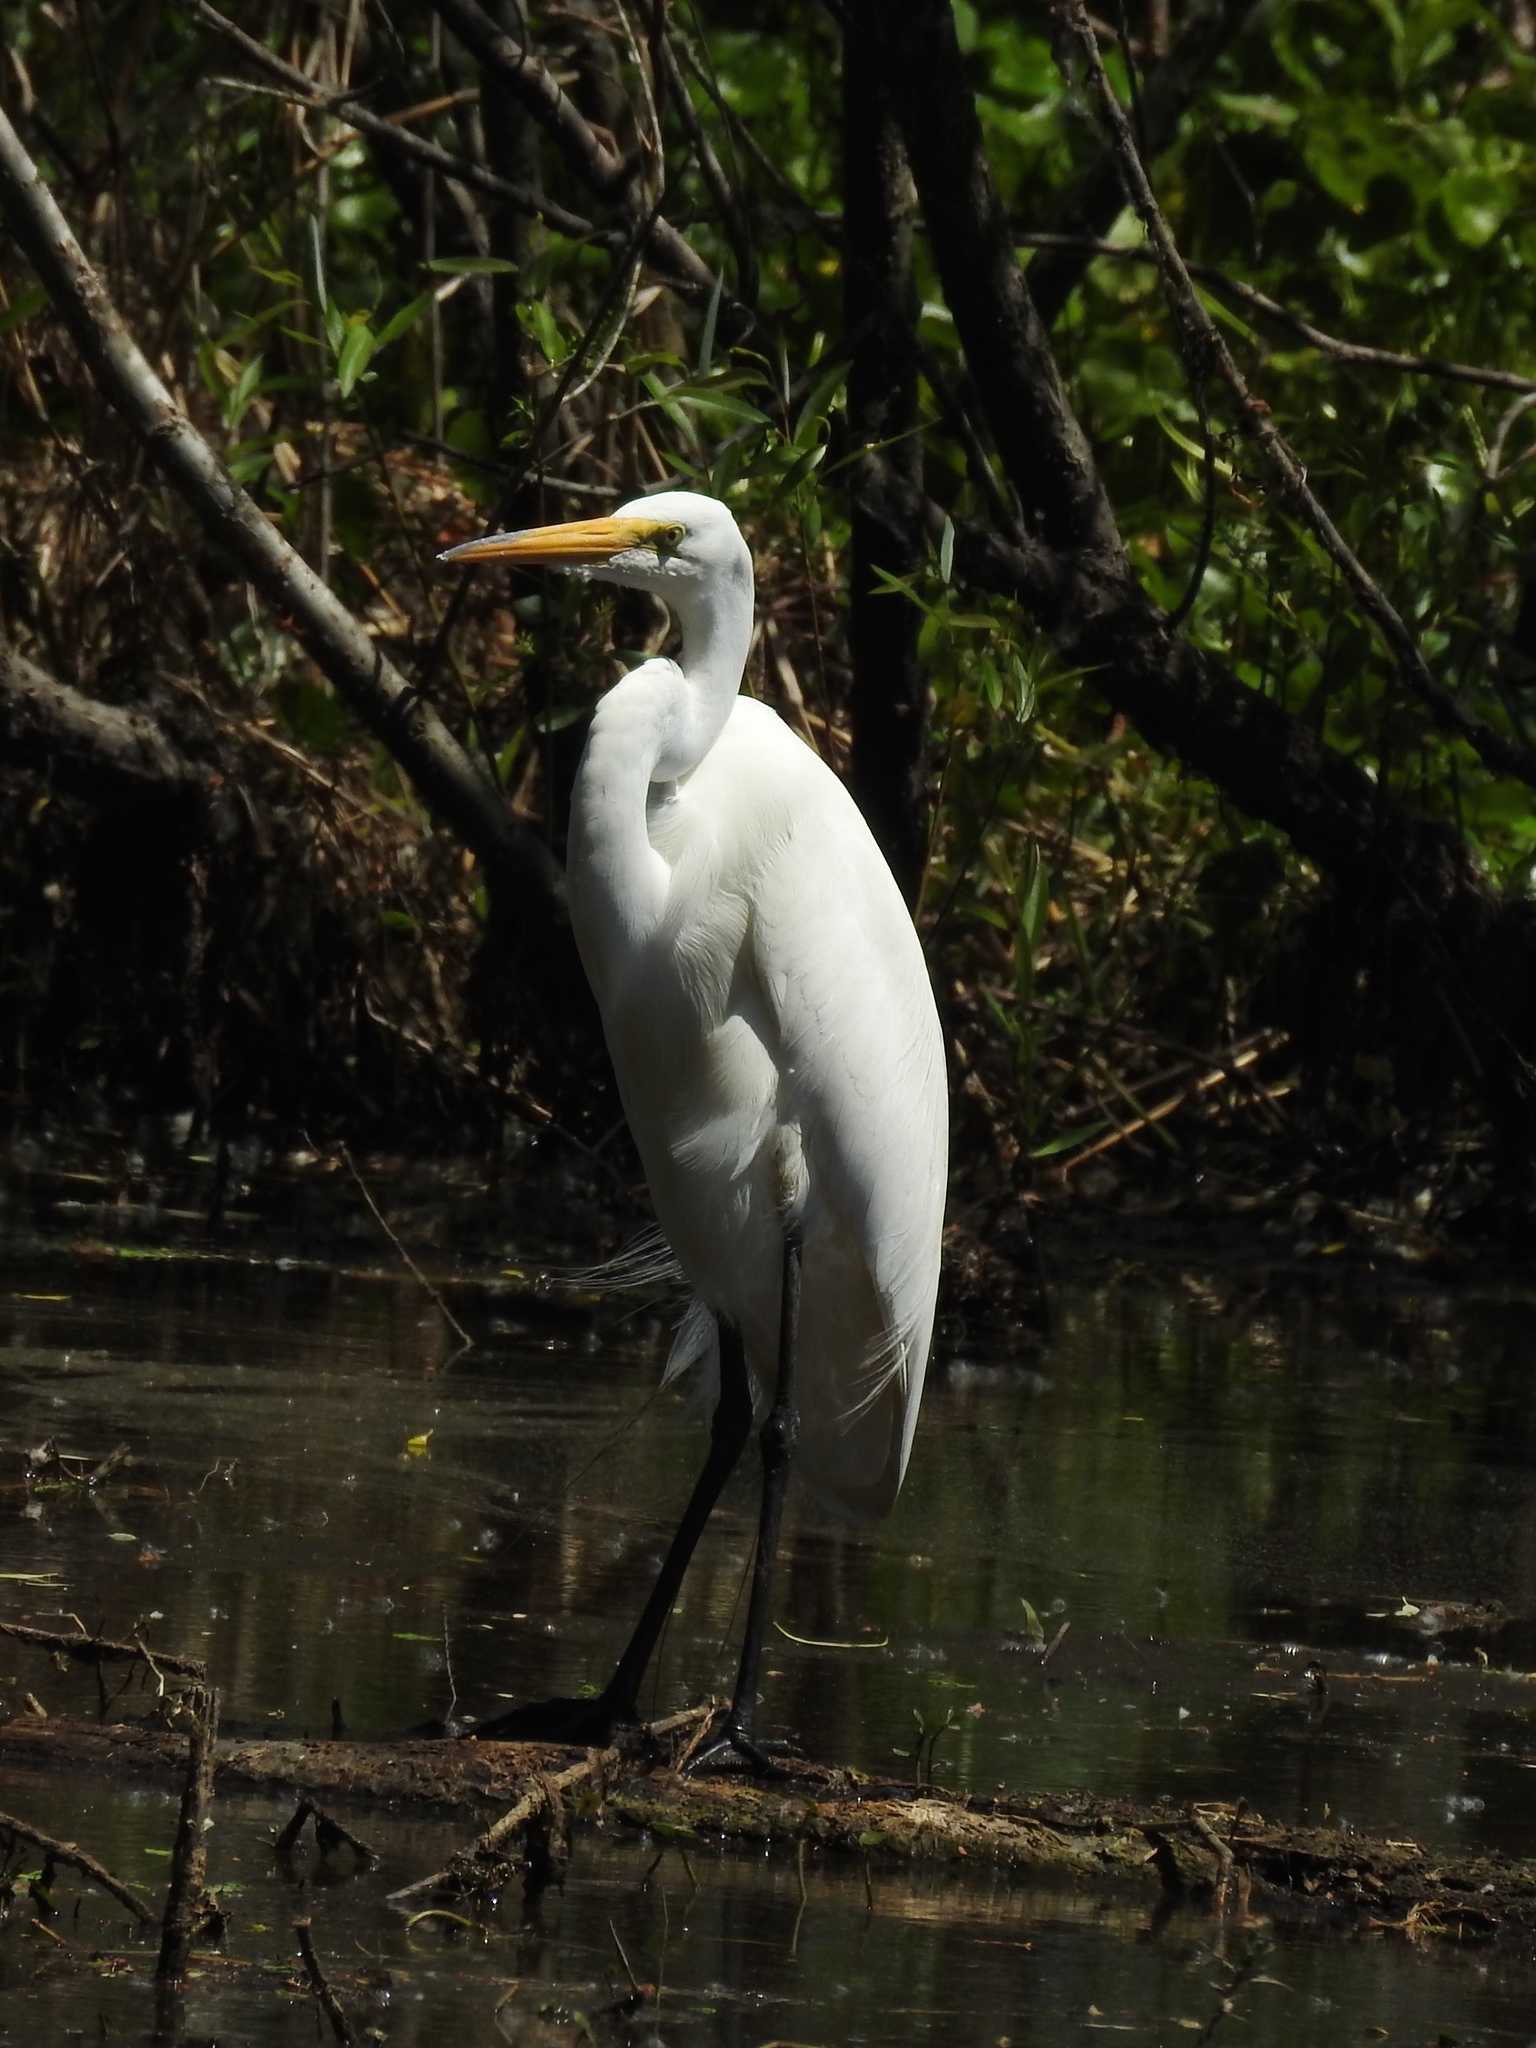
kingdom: Animalia
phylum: Chordata
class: Aves
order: Pelecaniformes
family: Ardeidae
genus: Ardea
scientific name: Ardea alba
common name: Great egret
